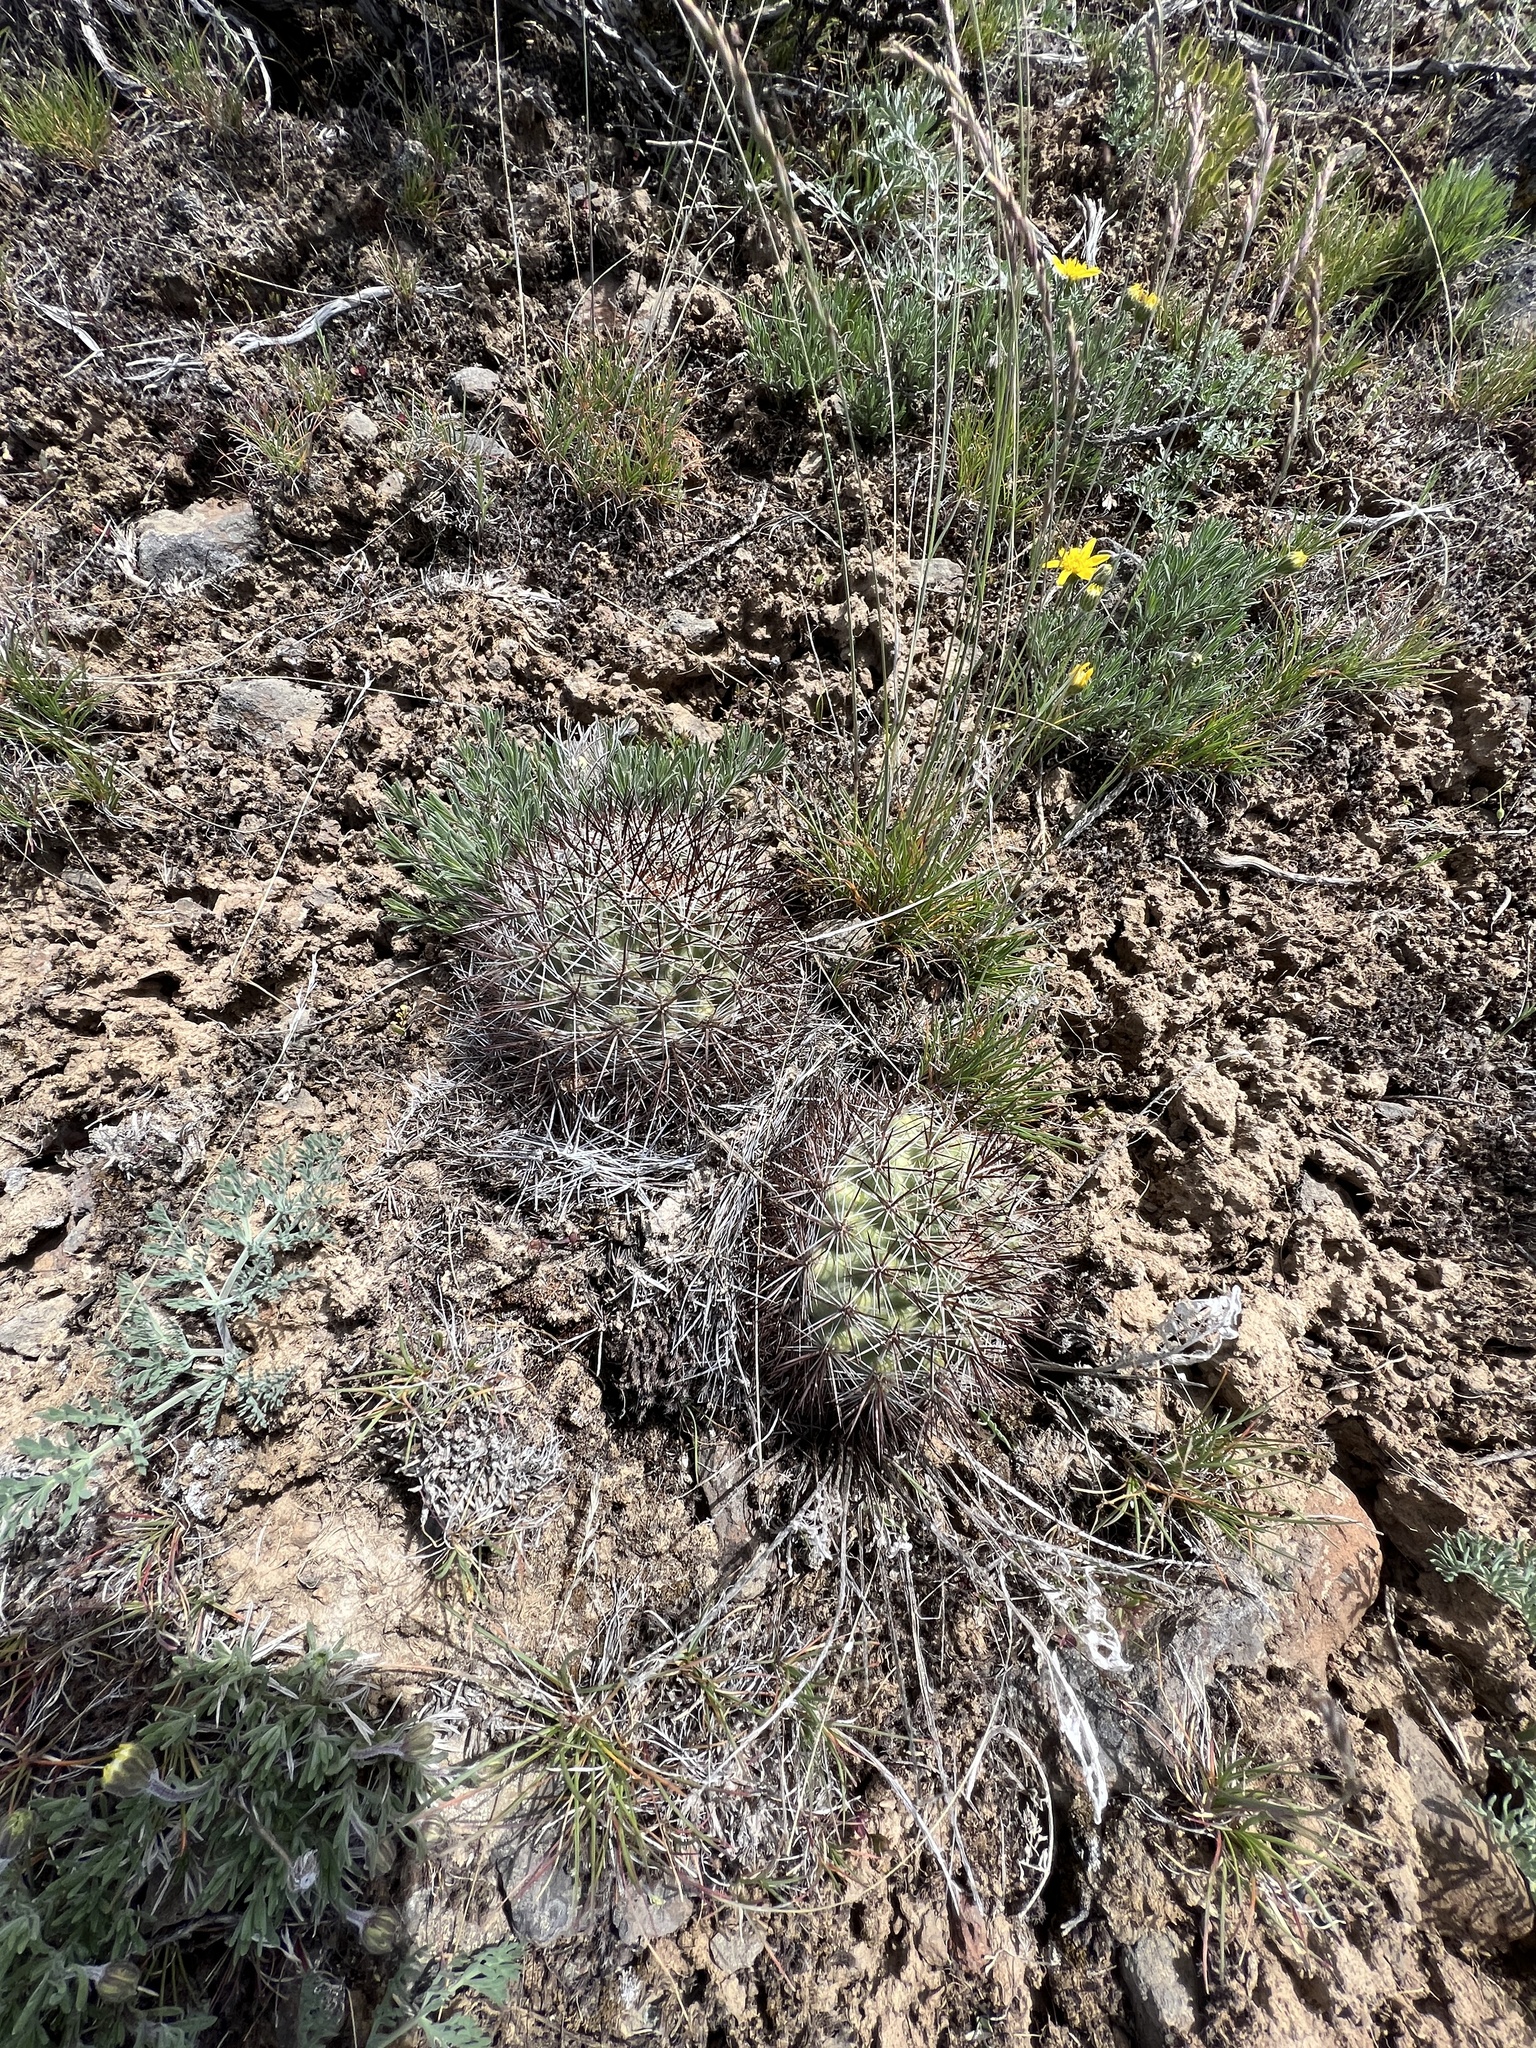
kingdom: Plantae
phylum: Tracheophyta
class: Magnoliopsida
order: Caryophyllales
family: Cactaceae
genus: Pediocactus
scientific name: Pediocactus nigrispinus
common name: Simpson's hedgehog cactus
